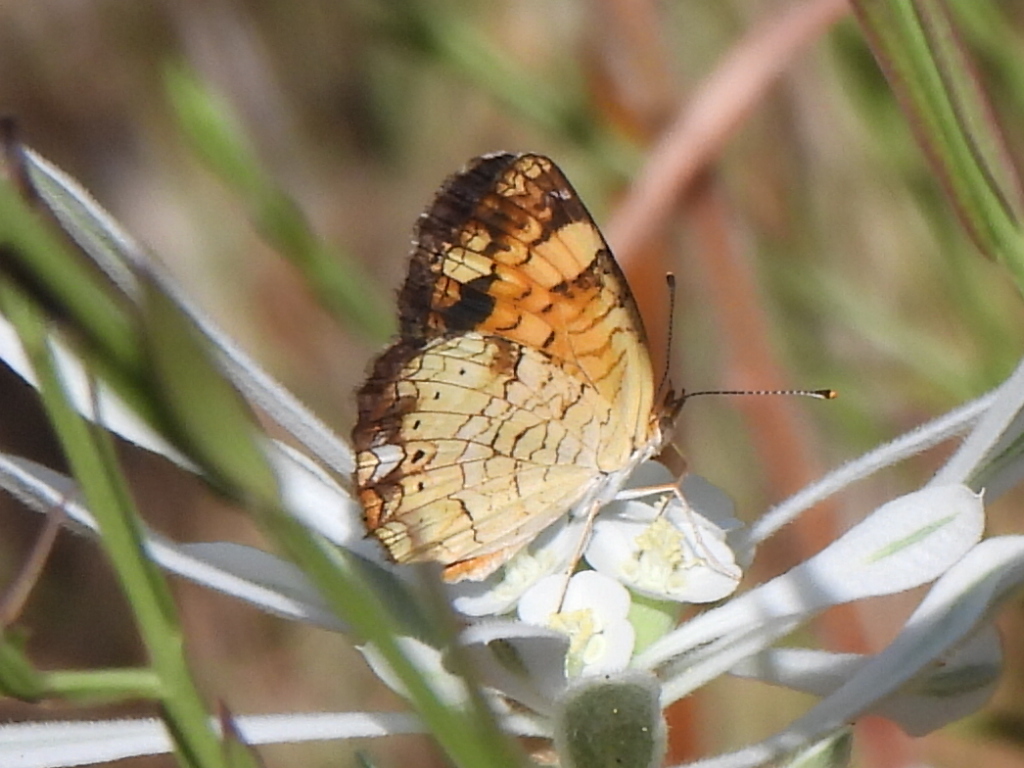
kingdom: Animalia
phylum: Arthropoda
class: Insecta
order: Lepidoptera
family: Nymphalidae
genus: Phyciodes
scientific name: Phyciodes tharos
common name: Pearl crescent
